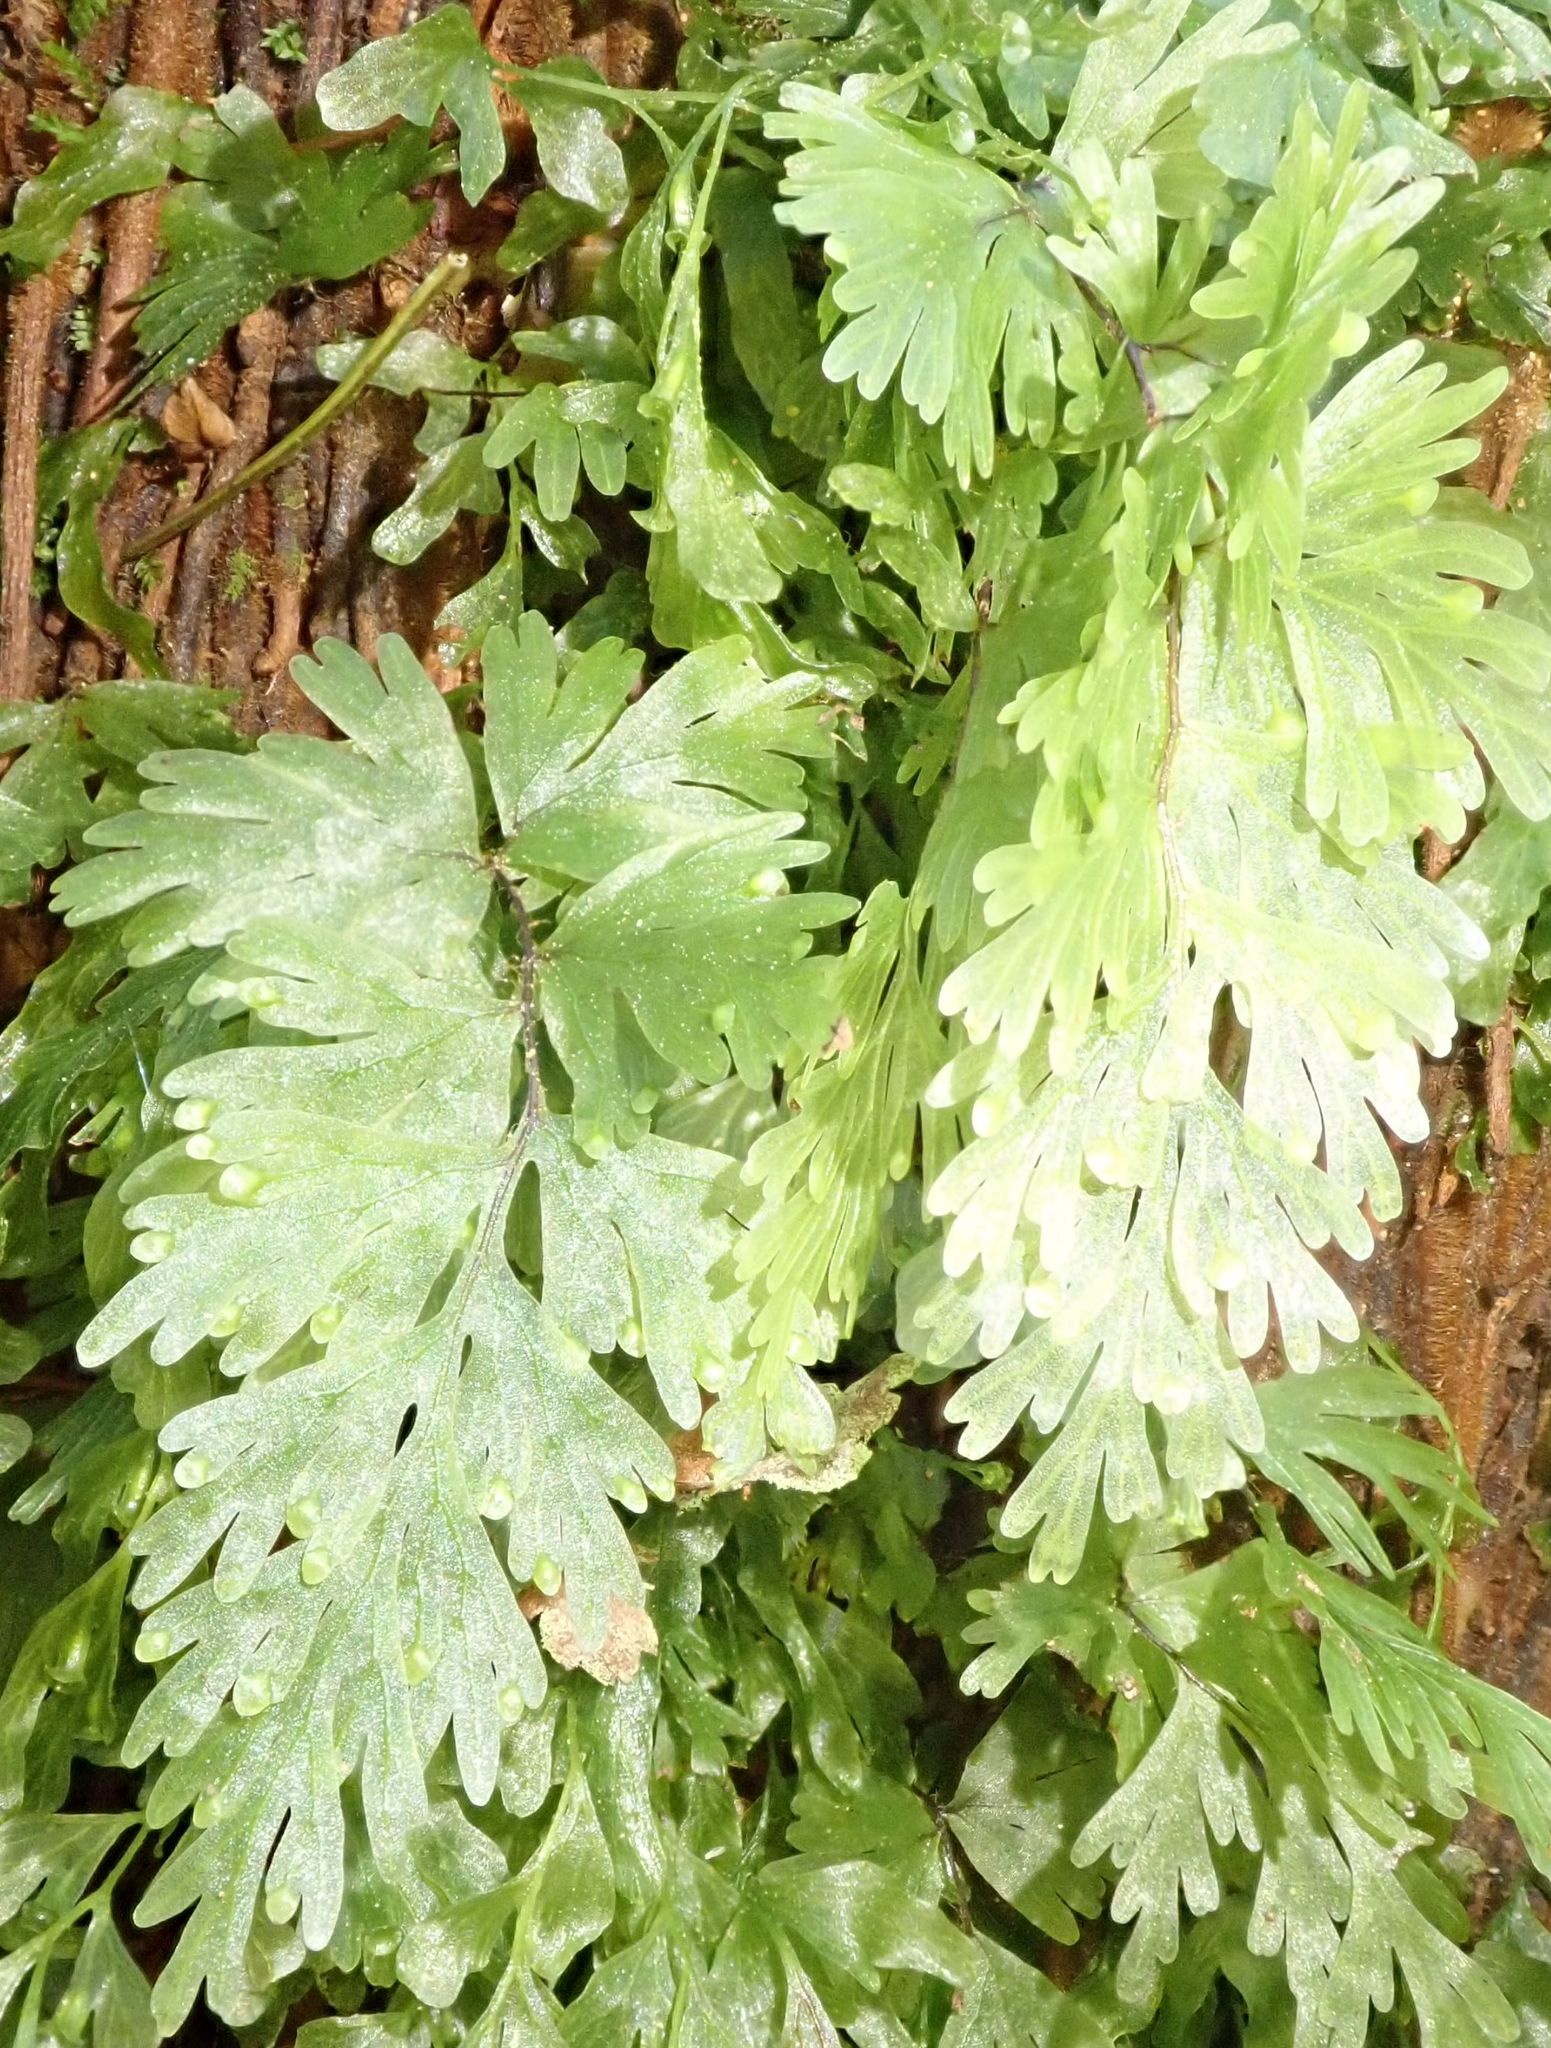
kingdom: Plantae
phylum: Tracheophyta
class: Polypodiopsida
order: Hymenophyllales
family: Hymenophyllaceae
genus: Hymenophyllum
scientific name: Hymenophyllum flabellatum
